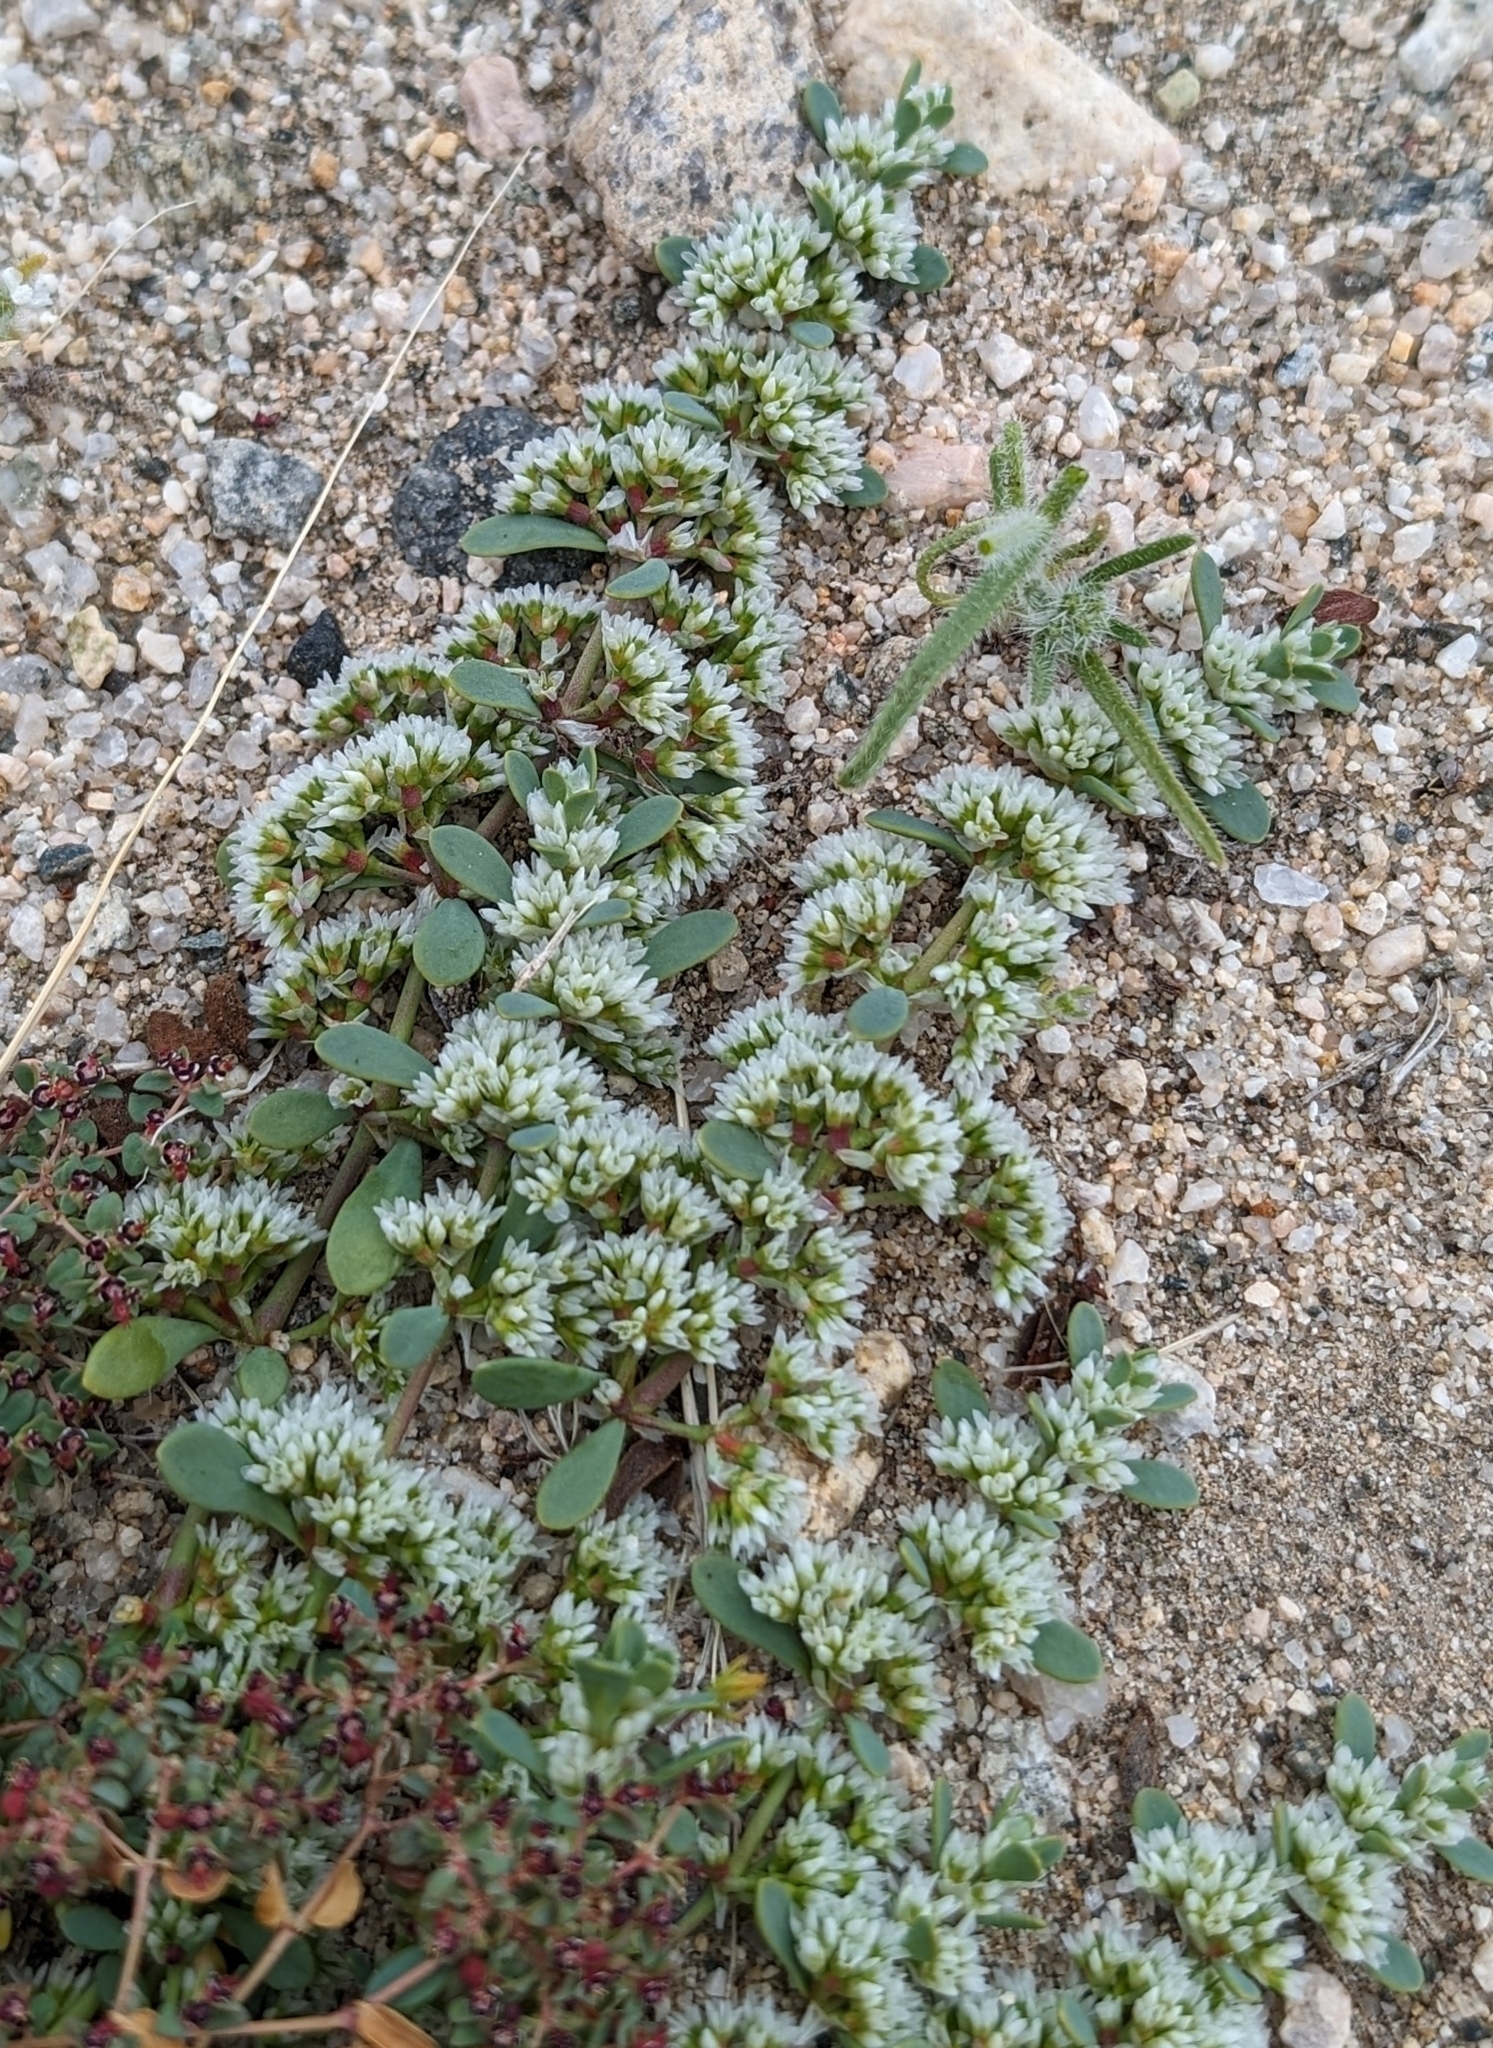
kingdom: Plantae
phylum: Tracheophyta
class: Magnoliopsida
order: Caryophyllales
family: Caryophyllaceae
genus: Achyronychia
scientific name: Achyronychia cooperi
